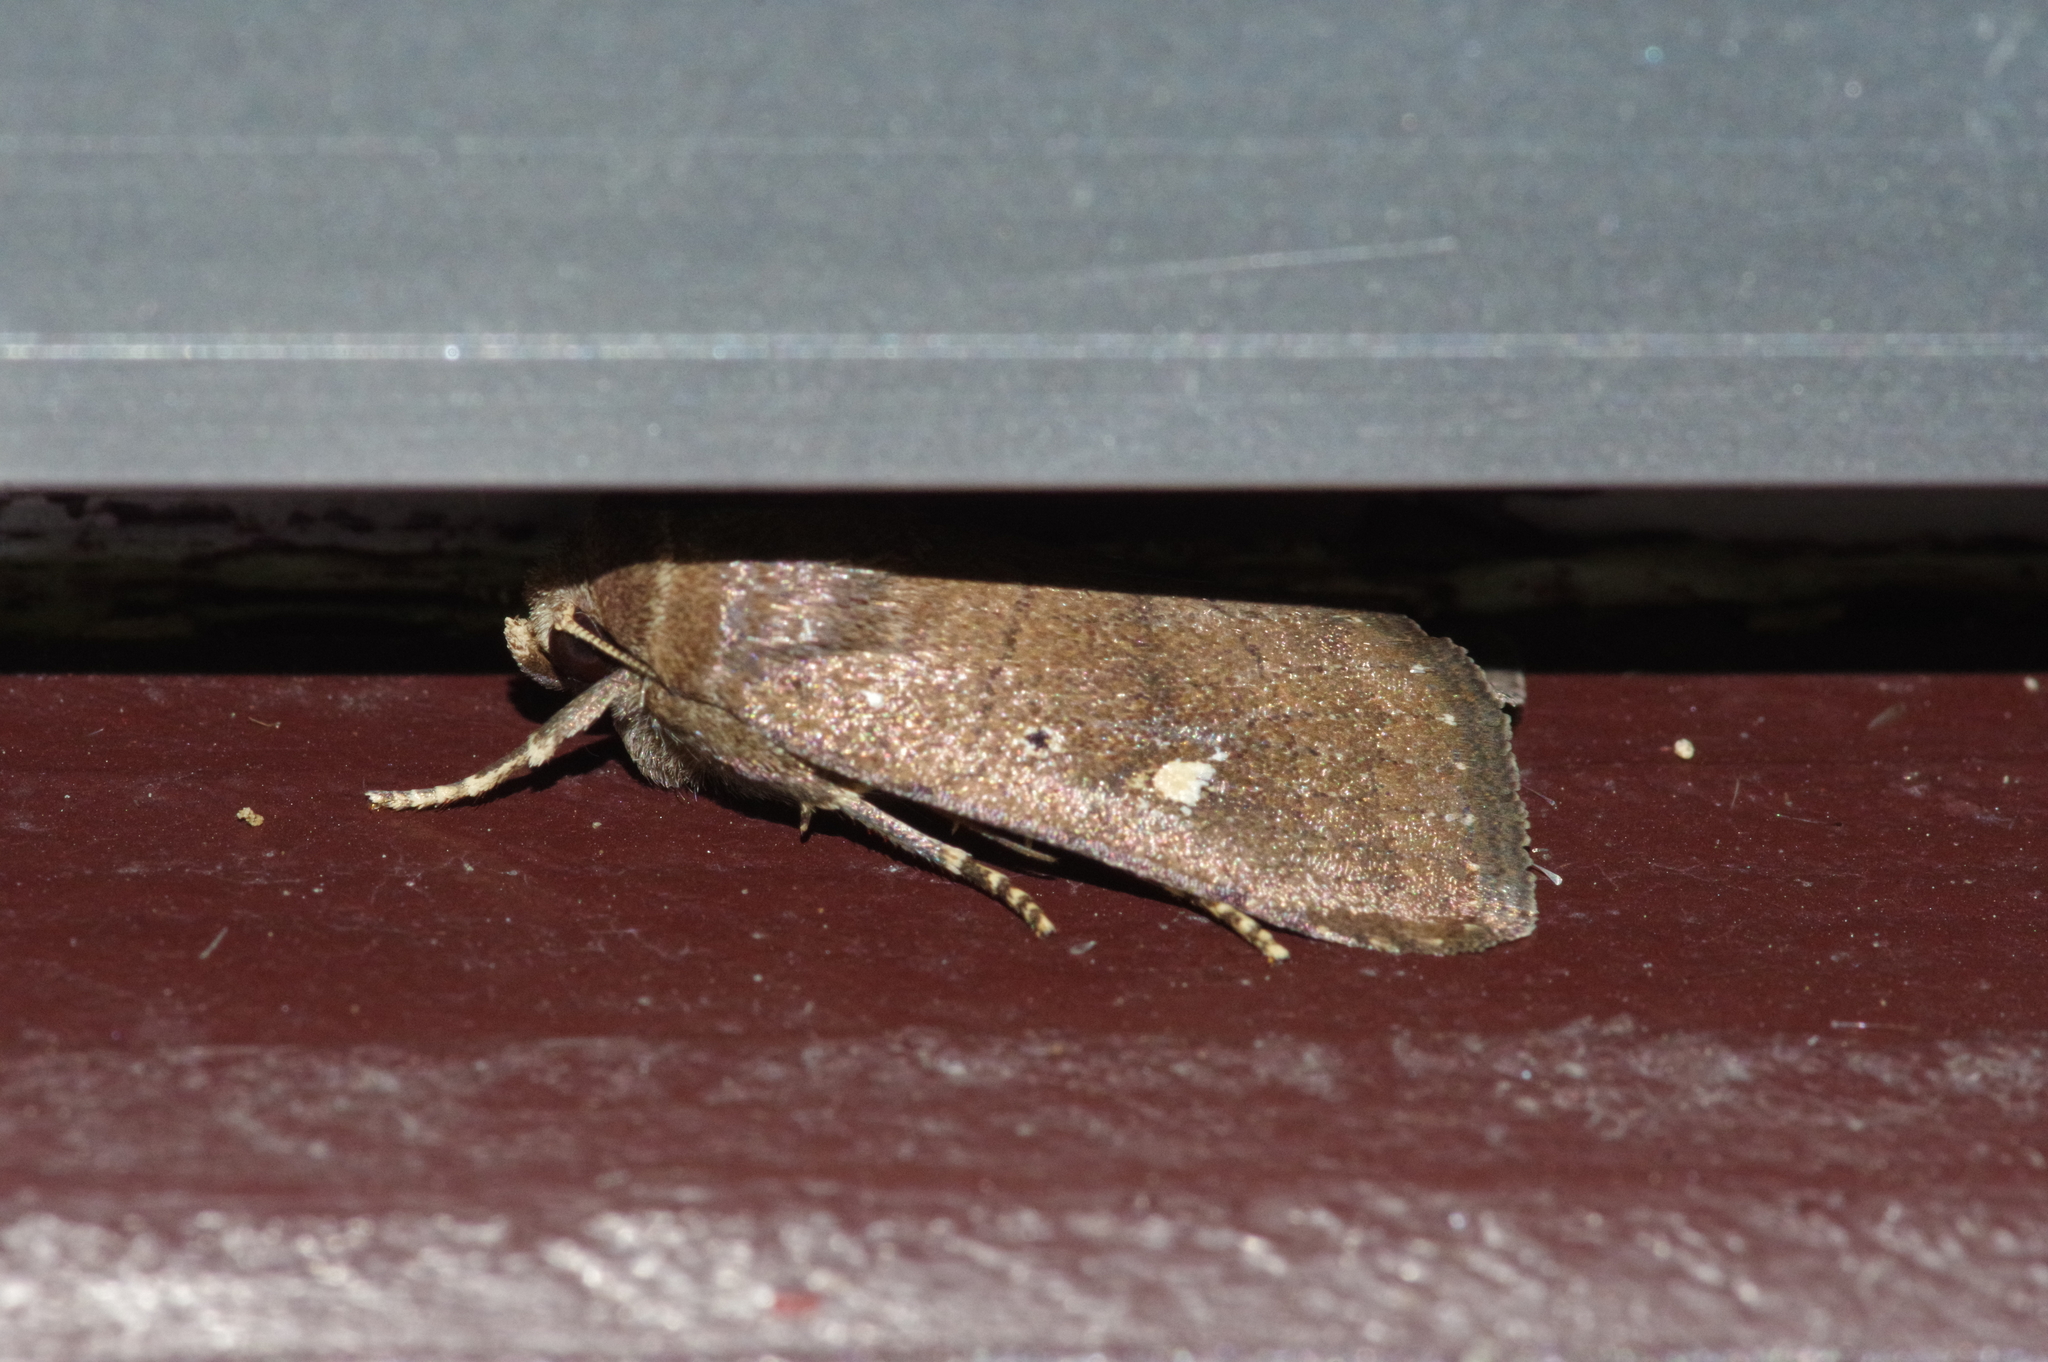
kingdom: Animalia
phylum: Arthropoda
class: Insecta
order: Lepidoptera
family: Noctuidae
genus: Athetis
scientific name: Athetis lineosella
